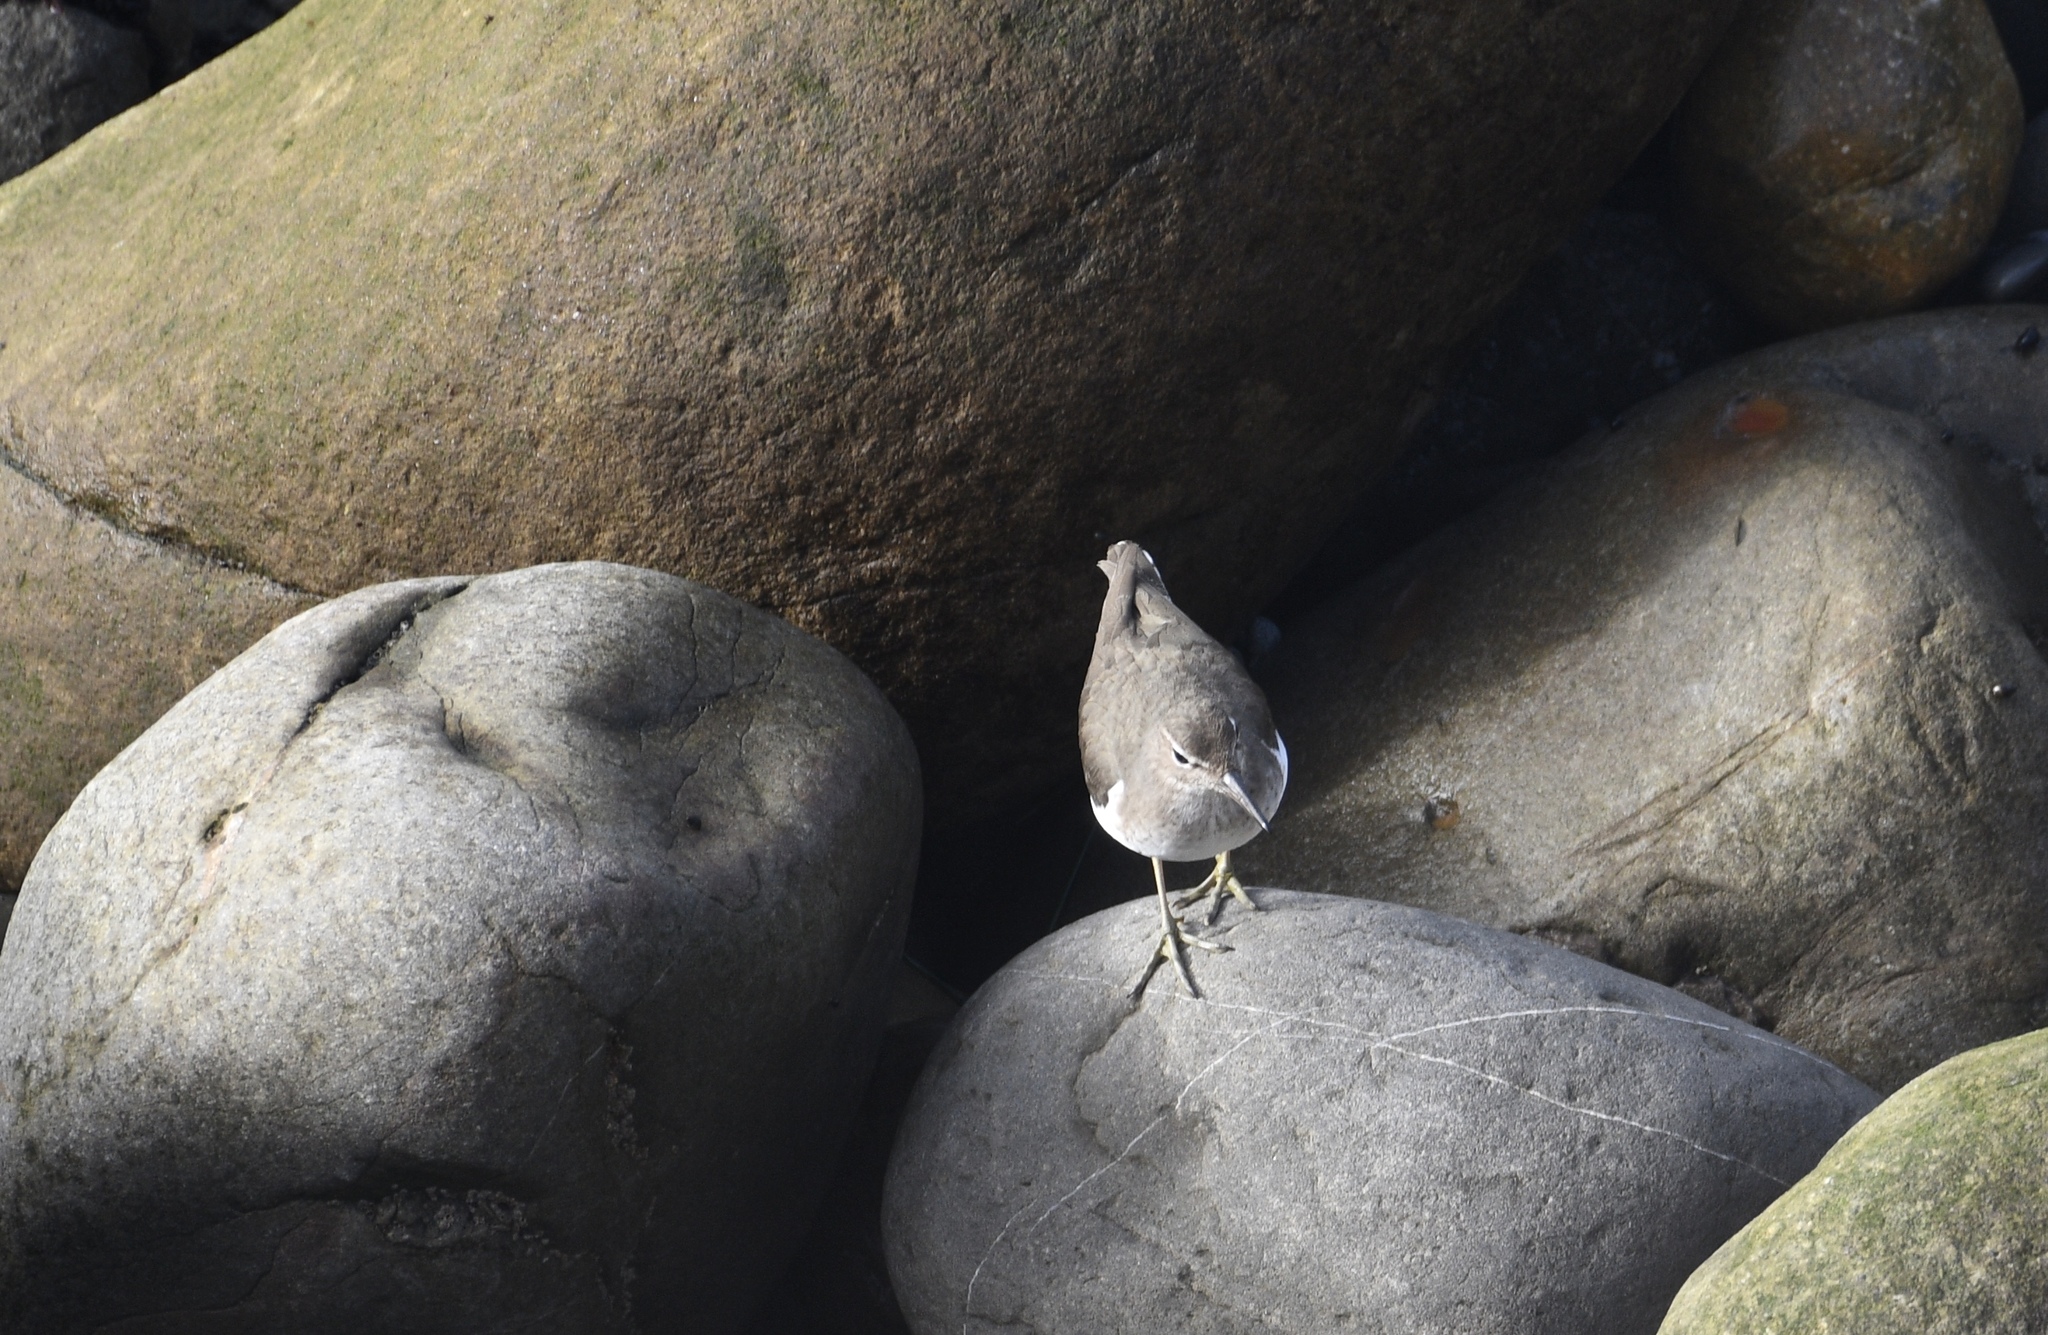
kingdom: Animalia
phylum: Chordata
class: Aves
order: Charadriiformes
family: Scolopacidae
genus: Actitis
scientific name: Actitis macularius
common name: Spotted sandpiper
